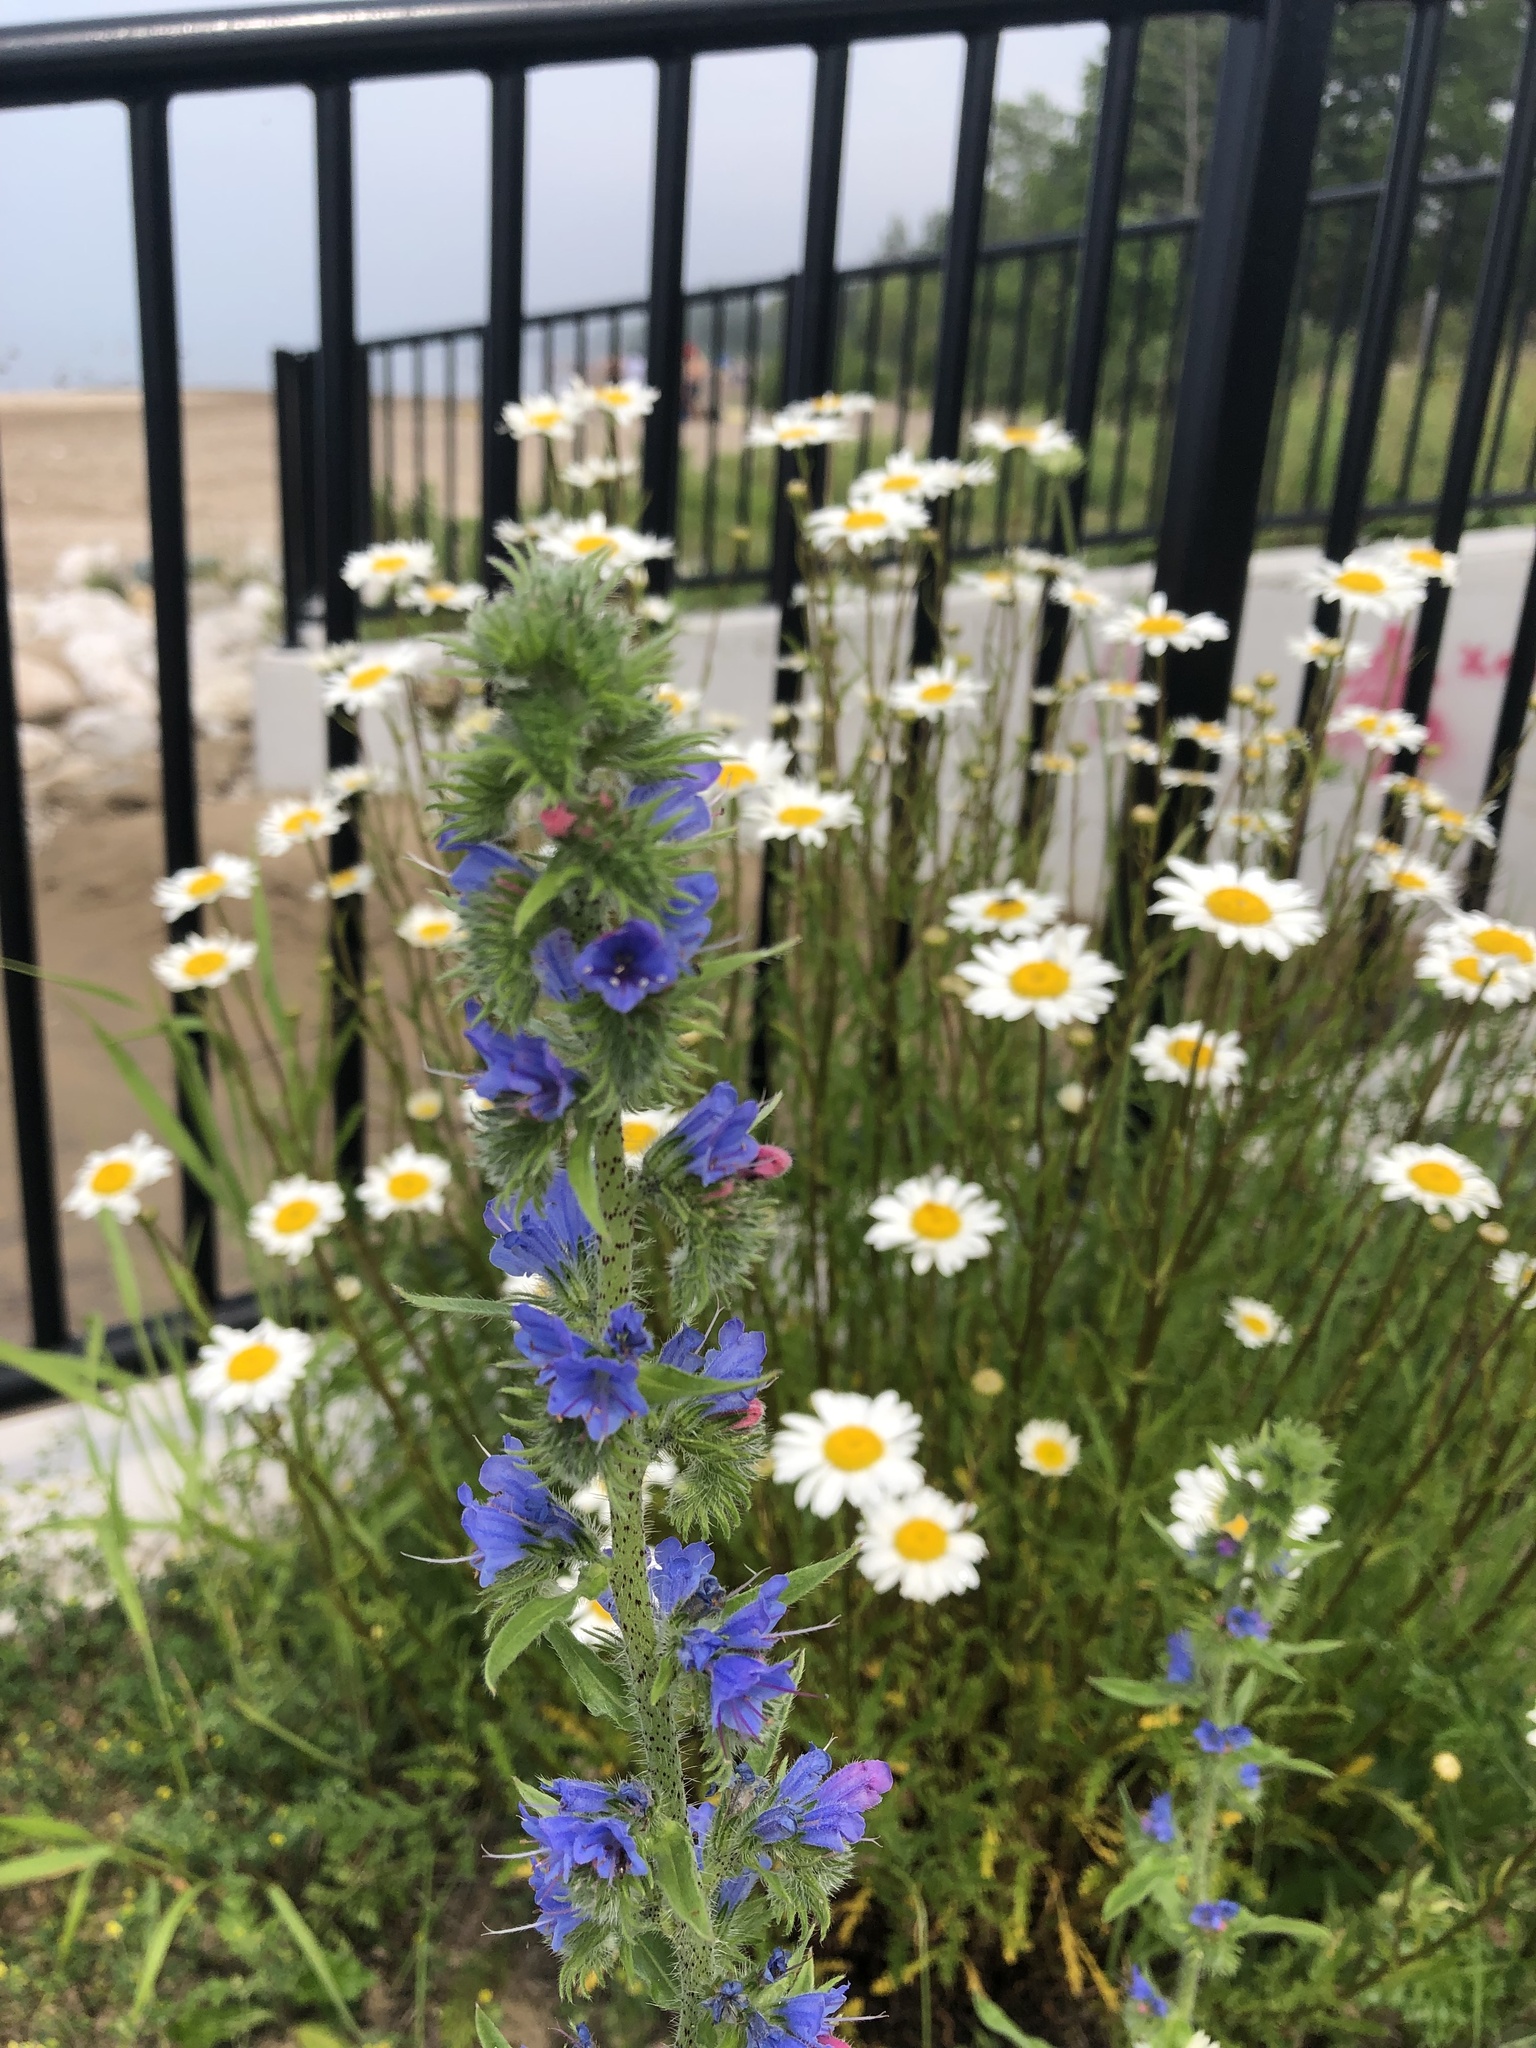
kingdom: Plantae
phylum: Tracheophyta
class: Magnoliopsida
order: Boraginales
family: Boraginaceae
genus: Echium
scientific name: Echium vulgare
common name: Common viper's bugloss
